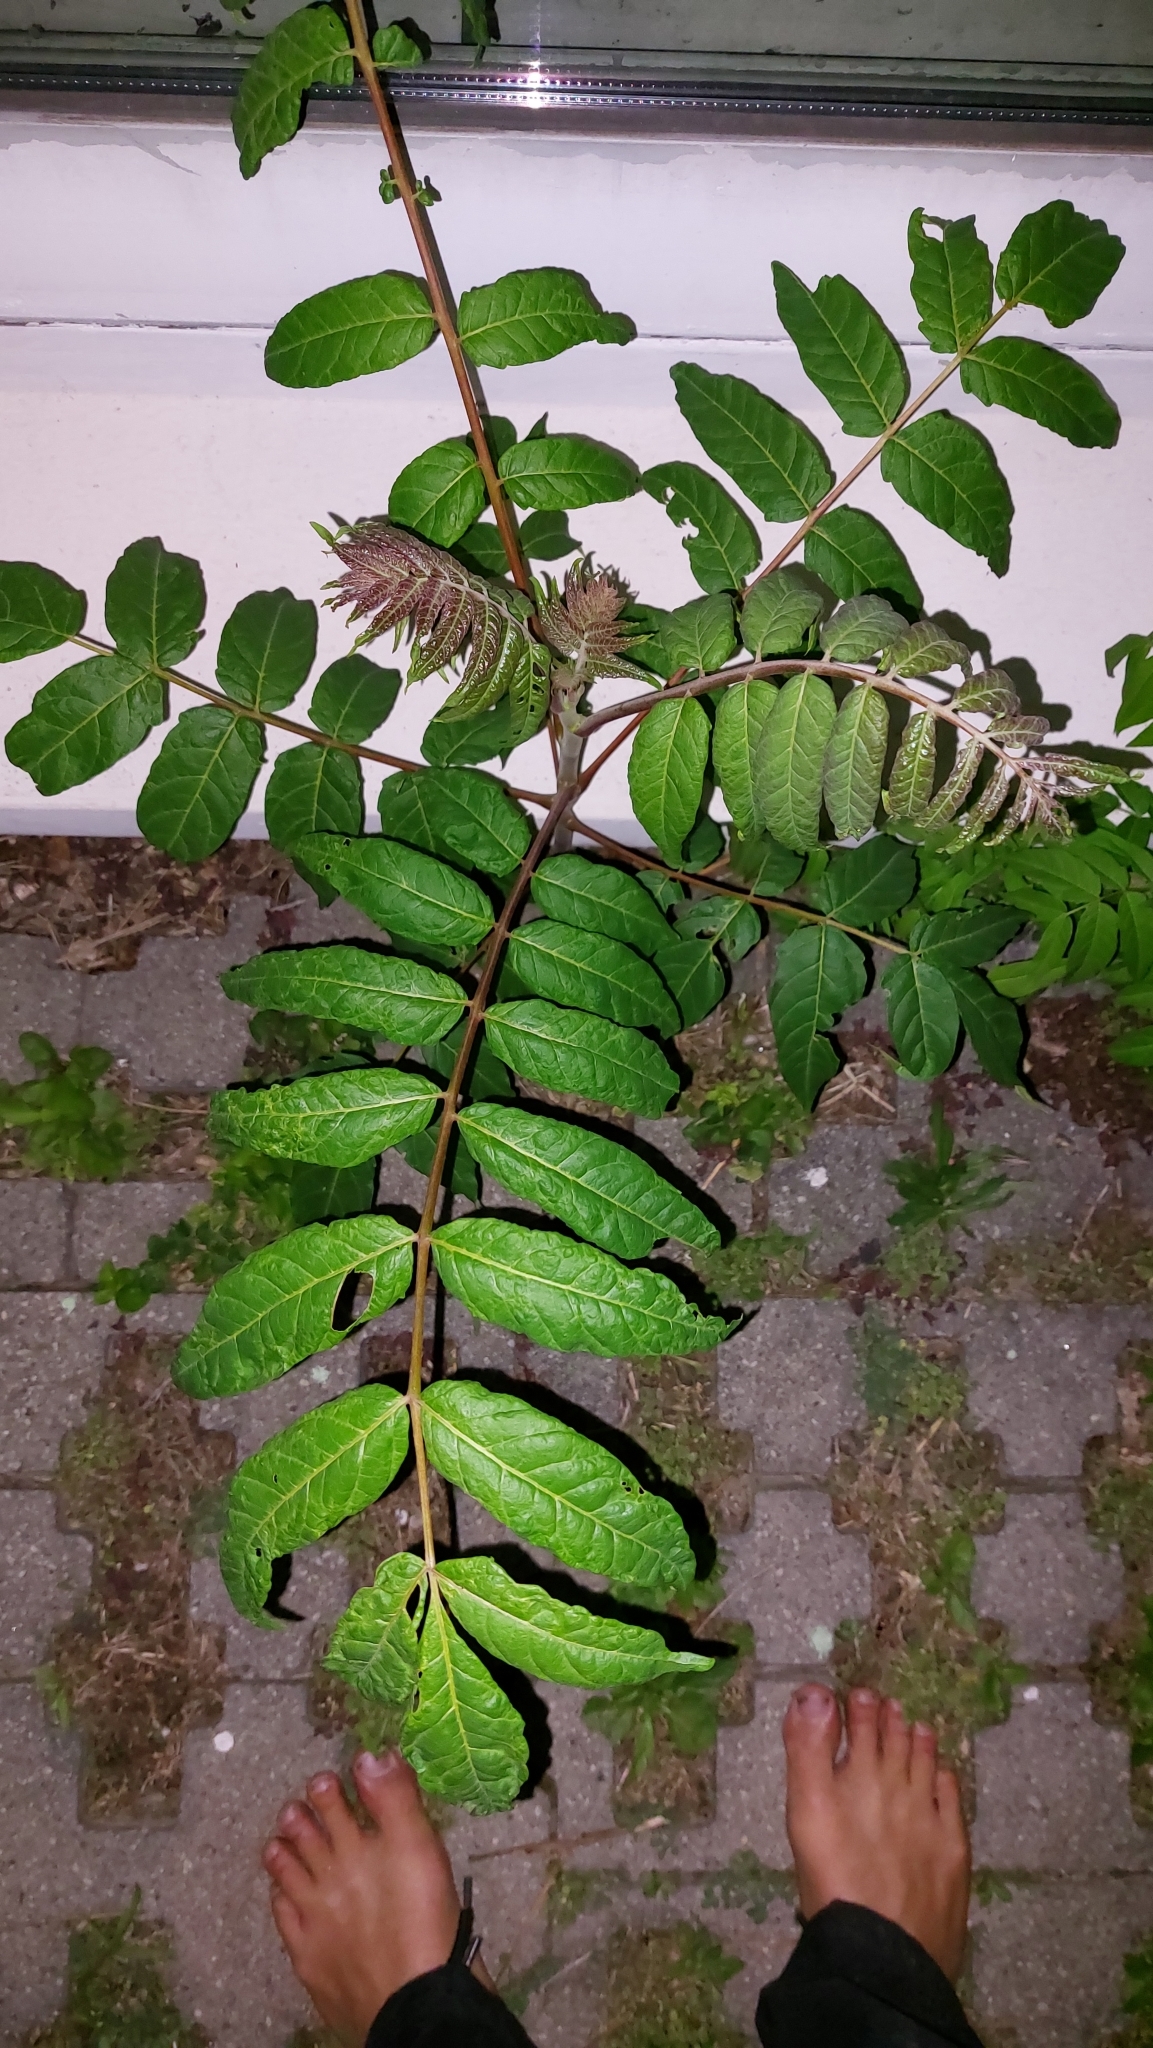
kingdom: Plantae
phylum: Tracheophyta
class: Magnoliopsida
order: Sapindales
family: Simaroubaceae
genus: Ailanthus
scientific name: Ailanthus altissima
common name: Tree-of-heaven
